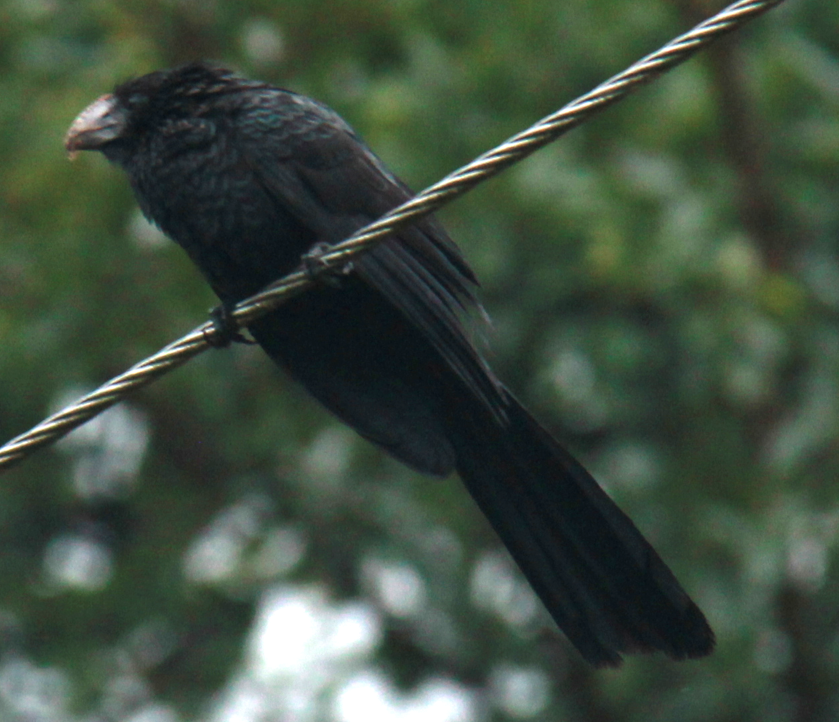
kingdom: Animalia
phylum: Chordata
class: Aves
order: Cuculiformes
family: Cuculidae
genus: Crotophaga
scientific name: Crotophaga ani
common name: Smooth-billed ani
